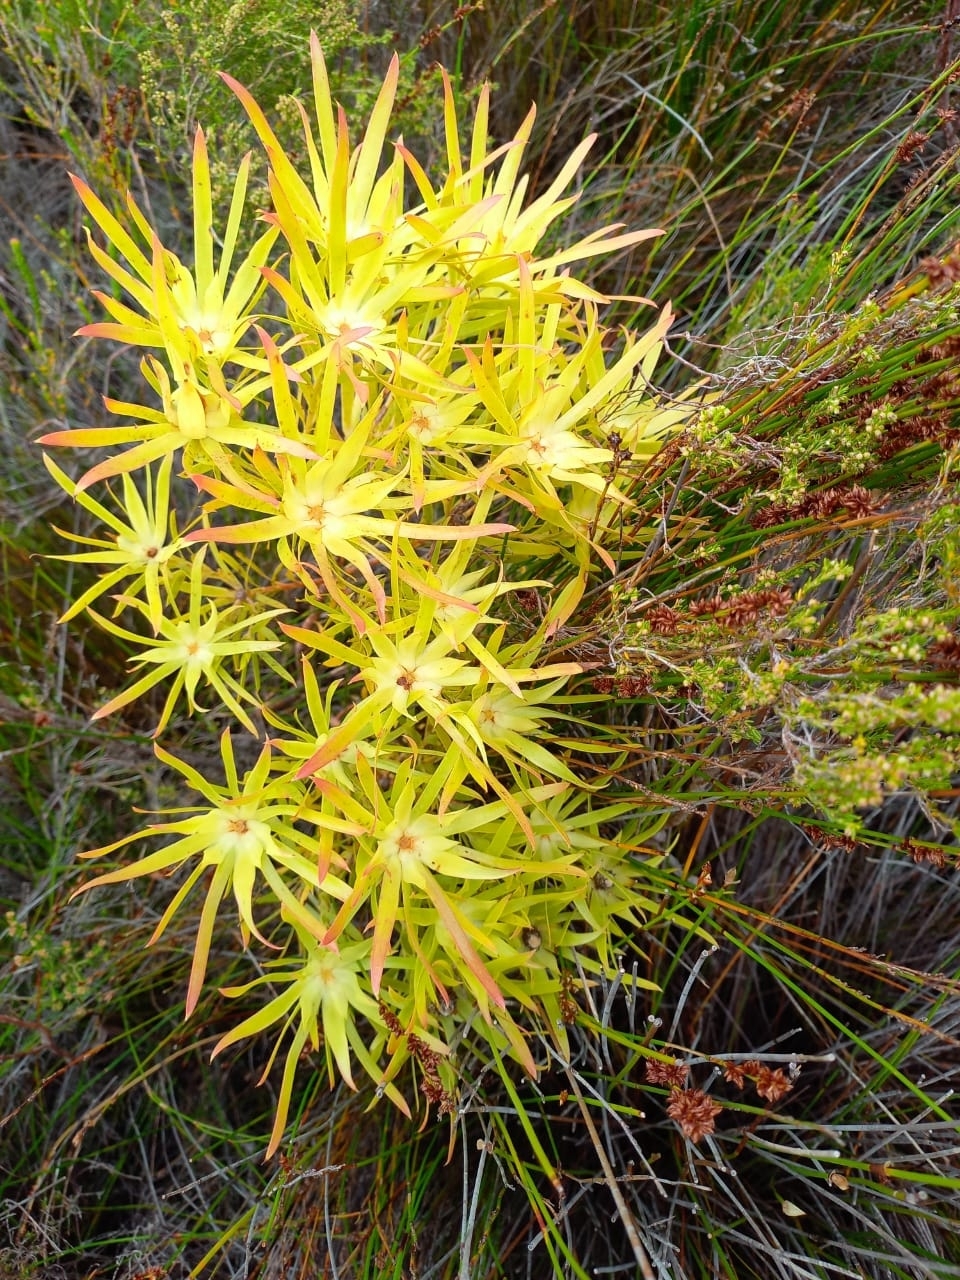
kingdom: Plantae
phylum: Tracheophyta
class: Magnoliopsida
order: Proteales
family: Proteaceae
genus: Leucadendron
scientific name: Leucadendron salignum
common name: Common sunshine conebush
